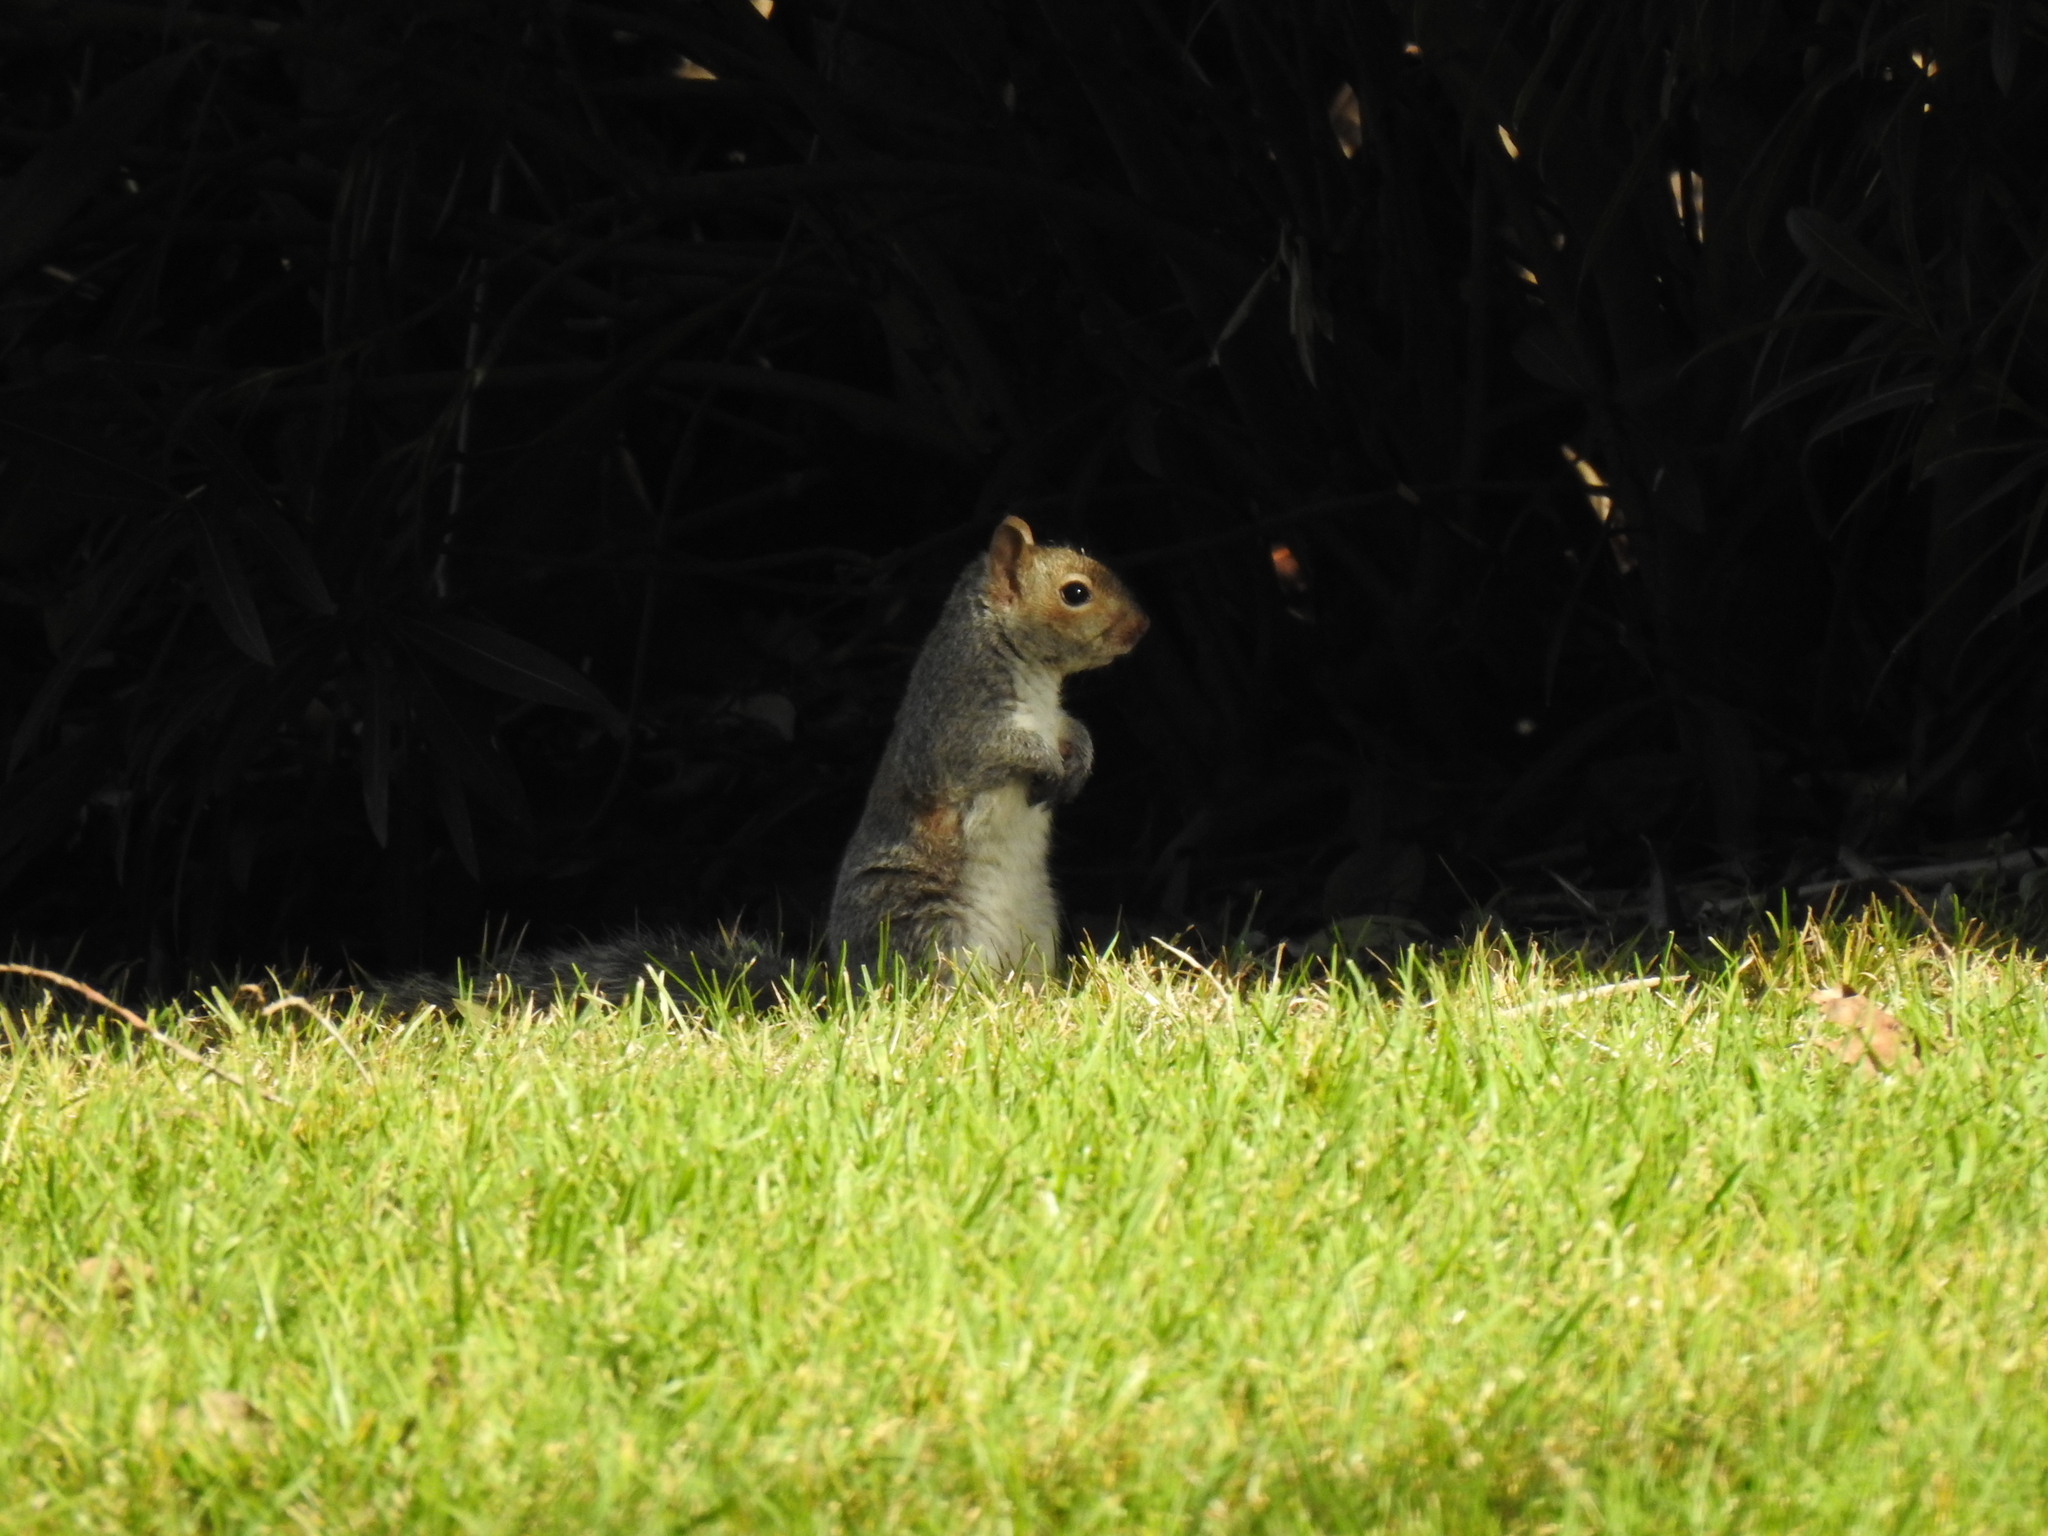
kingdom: Animalia
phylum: Chordata
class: Mammalia
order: Rodentia
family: Sciuridae
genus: Sciurus
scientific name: Sciurus carolinensis
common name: Eastern gray squirrel
